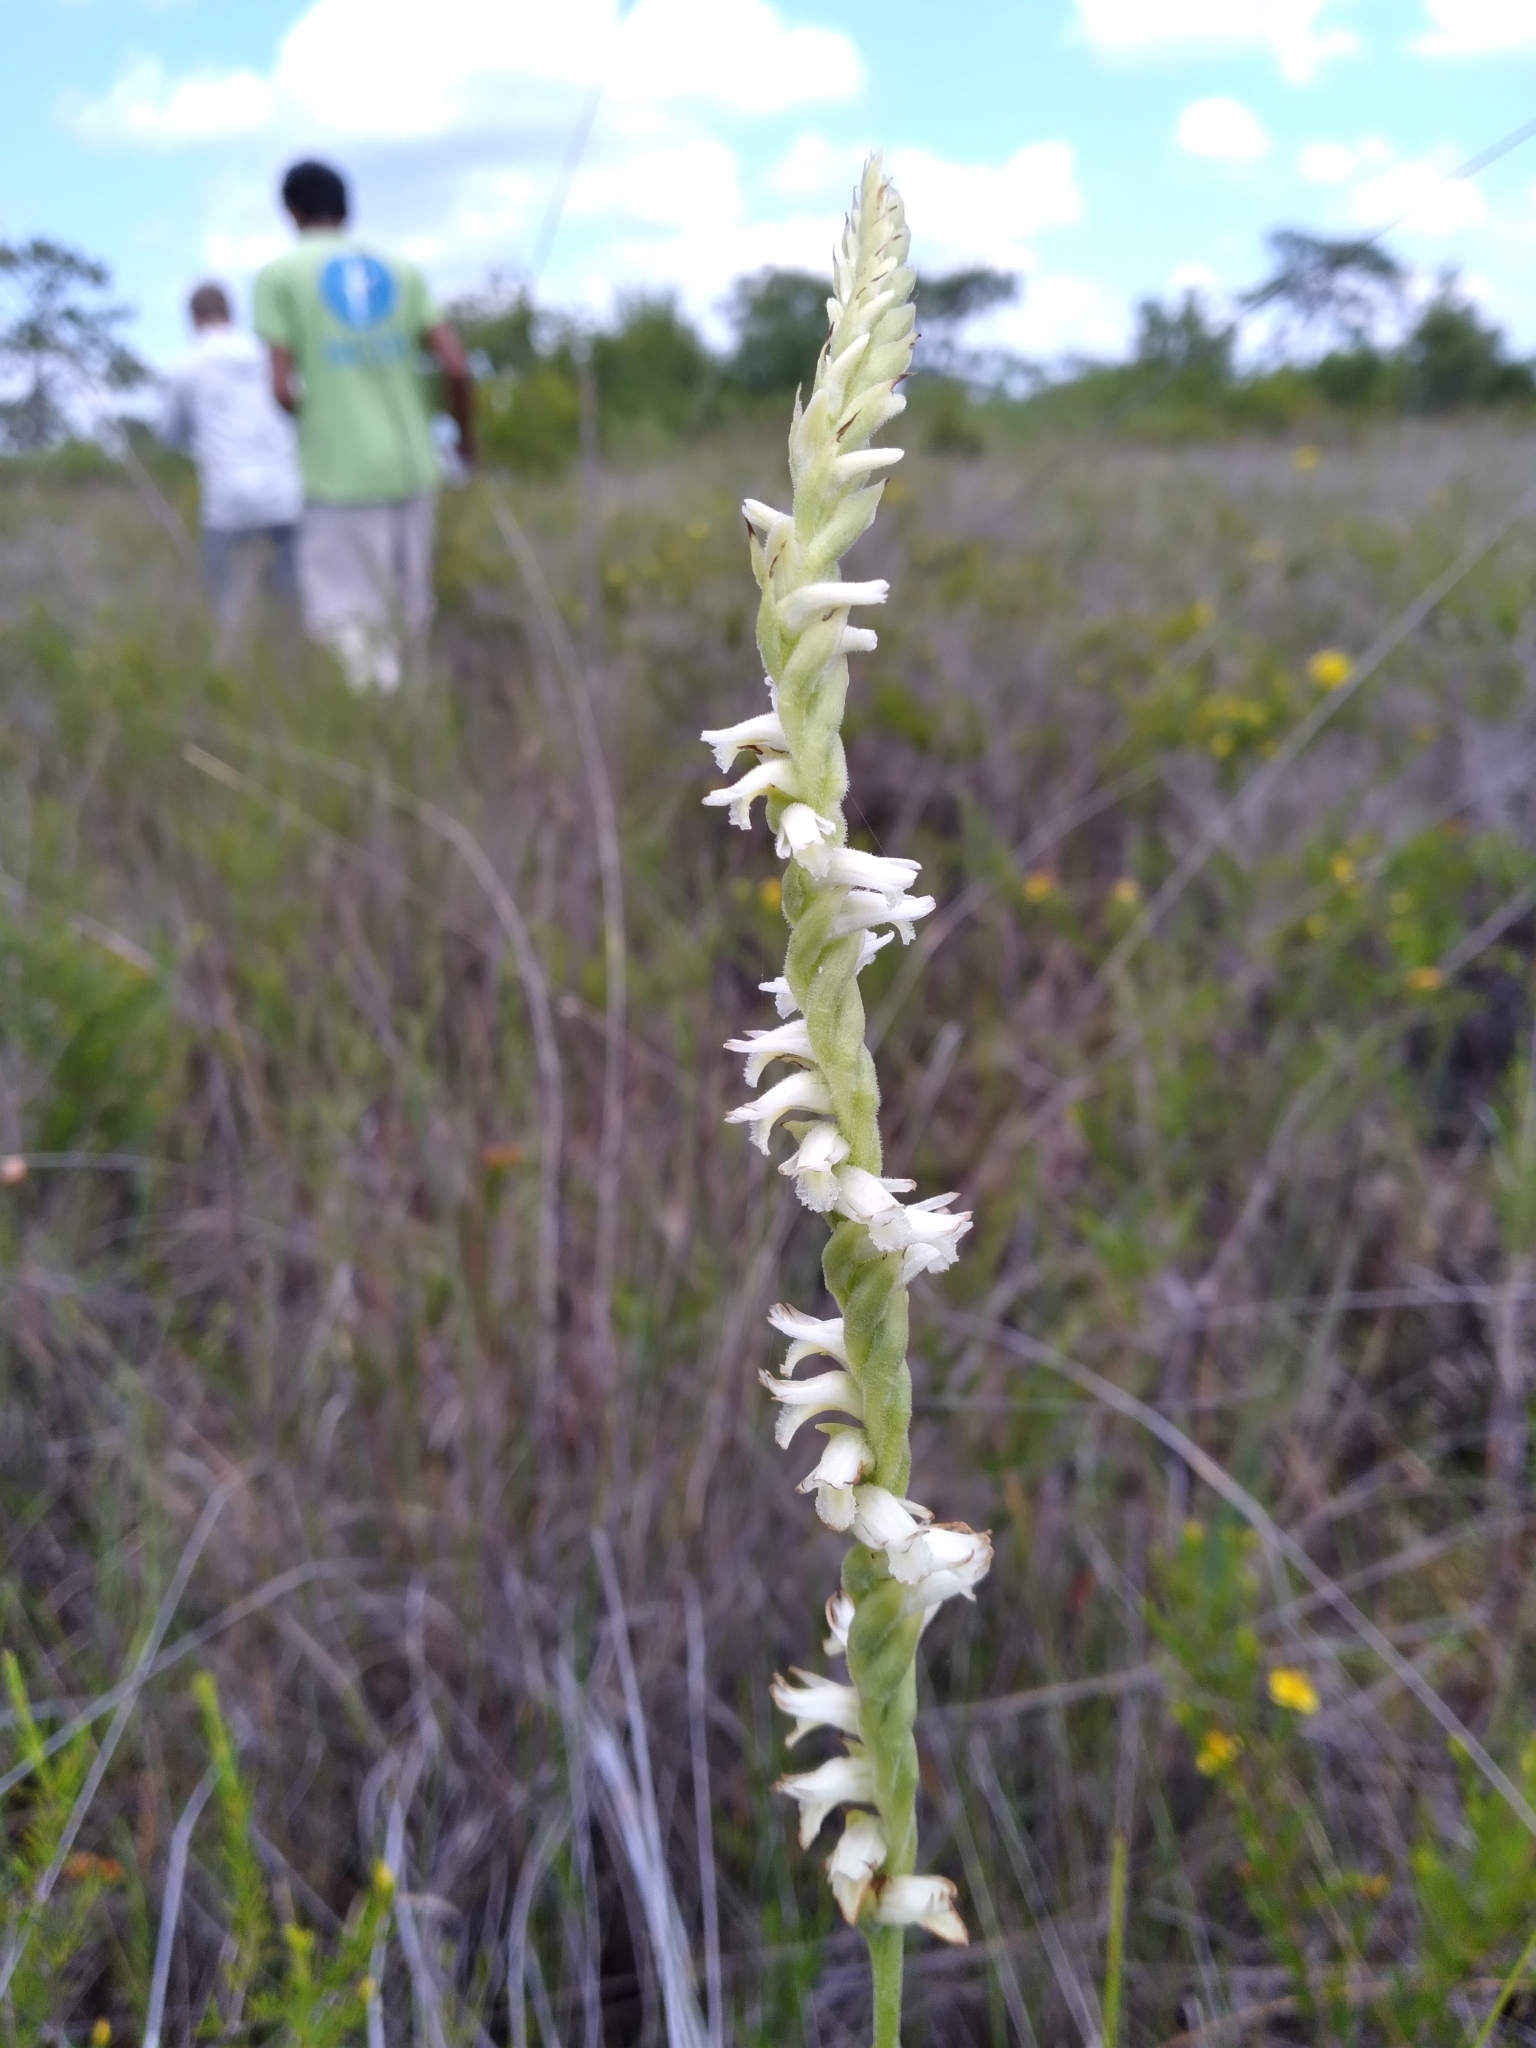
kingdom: Plantae
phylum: Tracheophyta
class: Liliopsida
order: Asparagales
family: Orchidaceae
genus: Spiranthes
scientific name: Spiranthes laciniata
